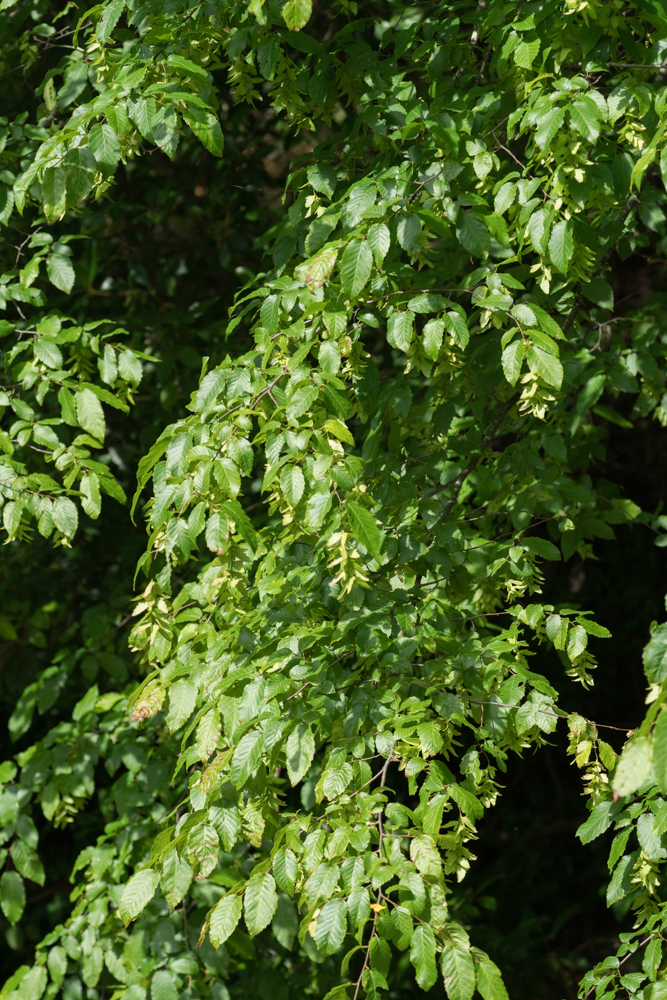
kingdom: Plantae
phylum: Tracheophyta
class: Magnoliopsida
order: Fagales
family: Betulaceae
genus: Carpinus
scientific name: Carpinus caroliniana
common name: American hornbeam
